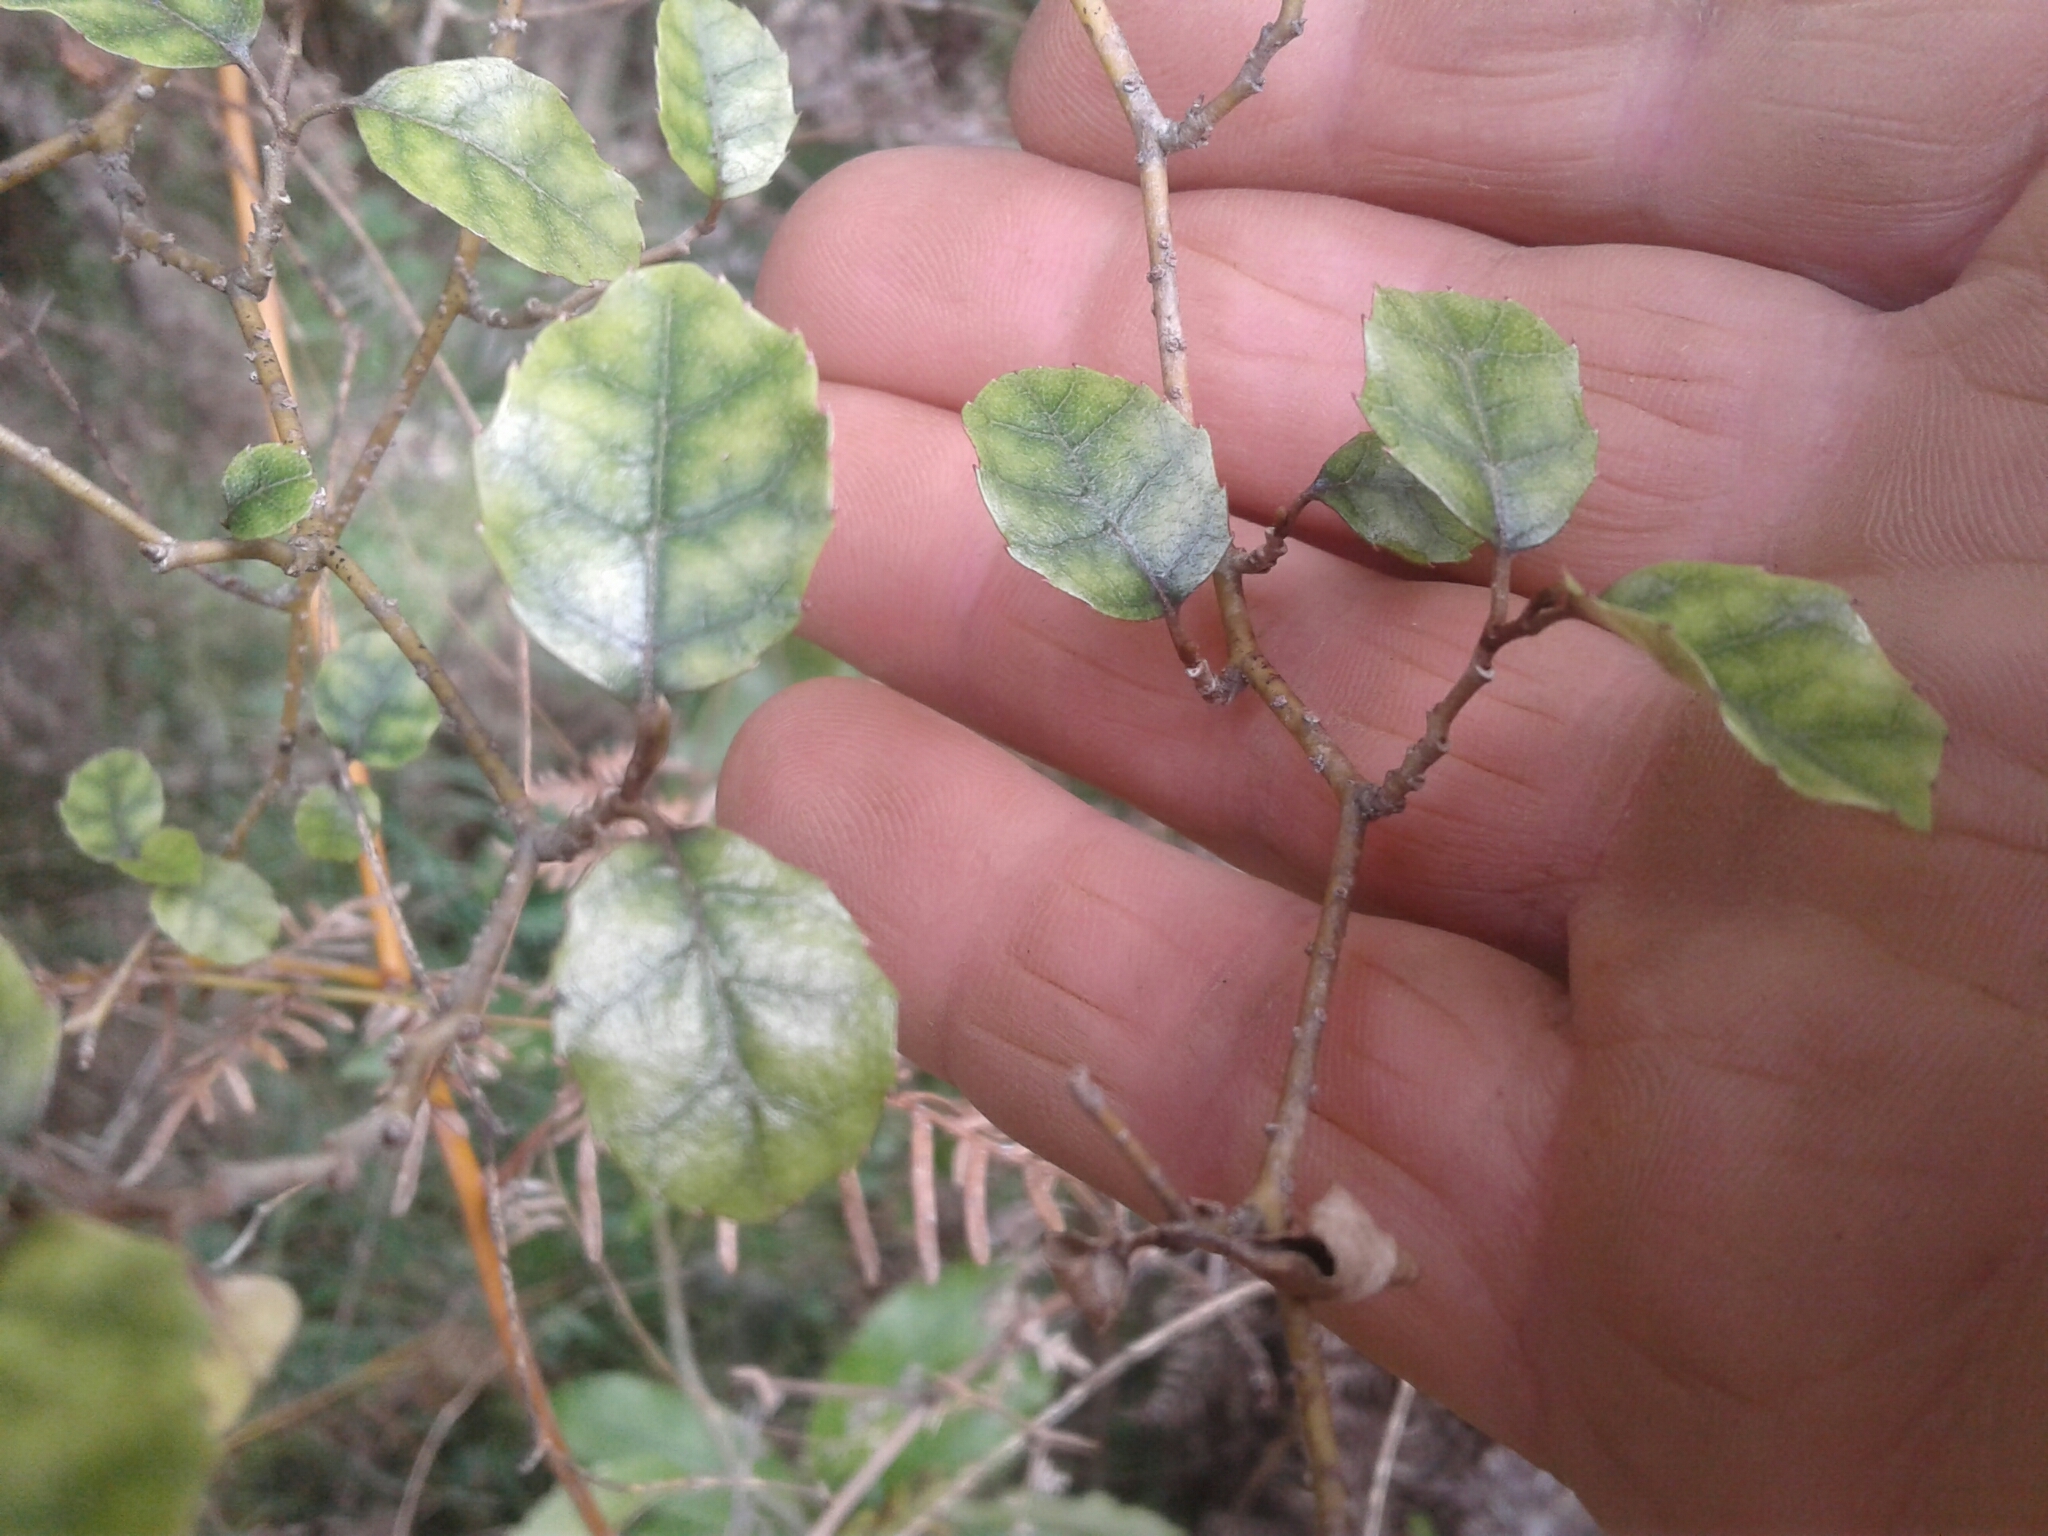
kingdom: Plantae
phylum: Tracheophyta
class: Magnoliopsida
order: Asterales
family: Rousseaceae
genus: Carpodetus
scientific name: Carpodetus serratus
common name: White mapau
